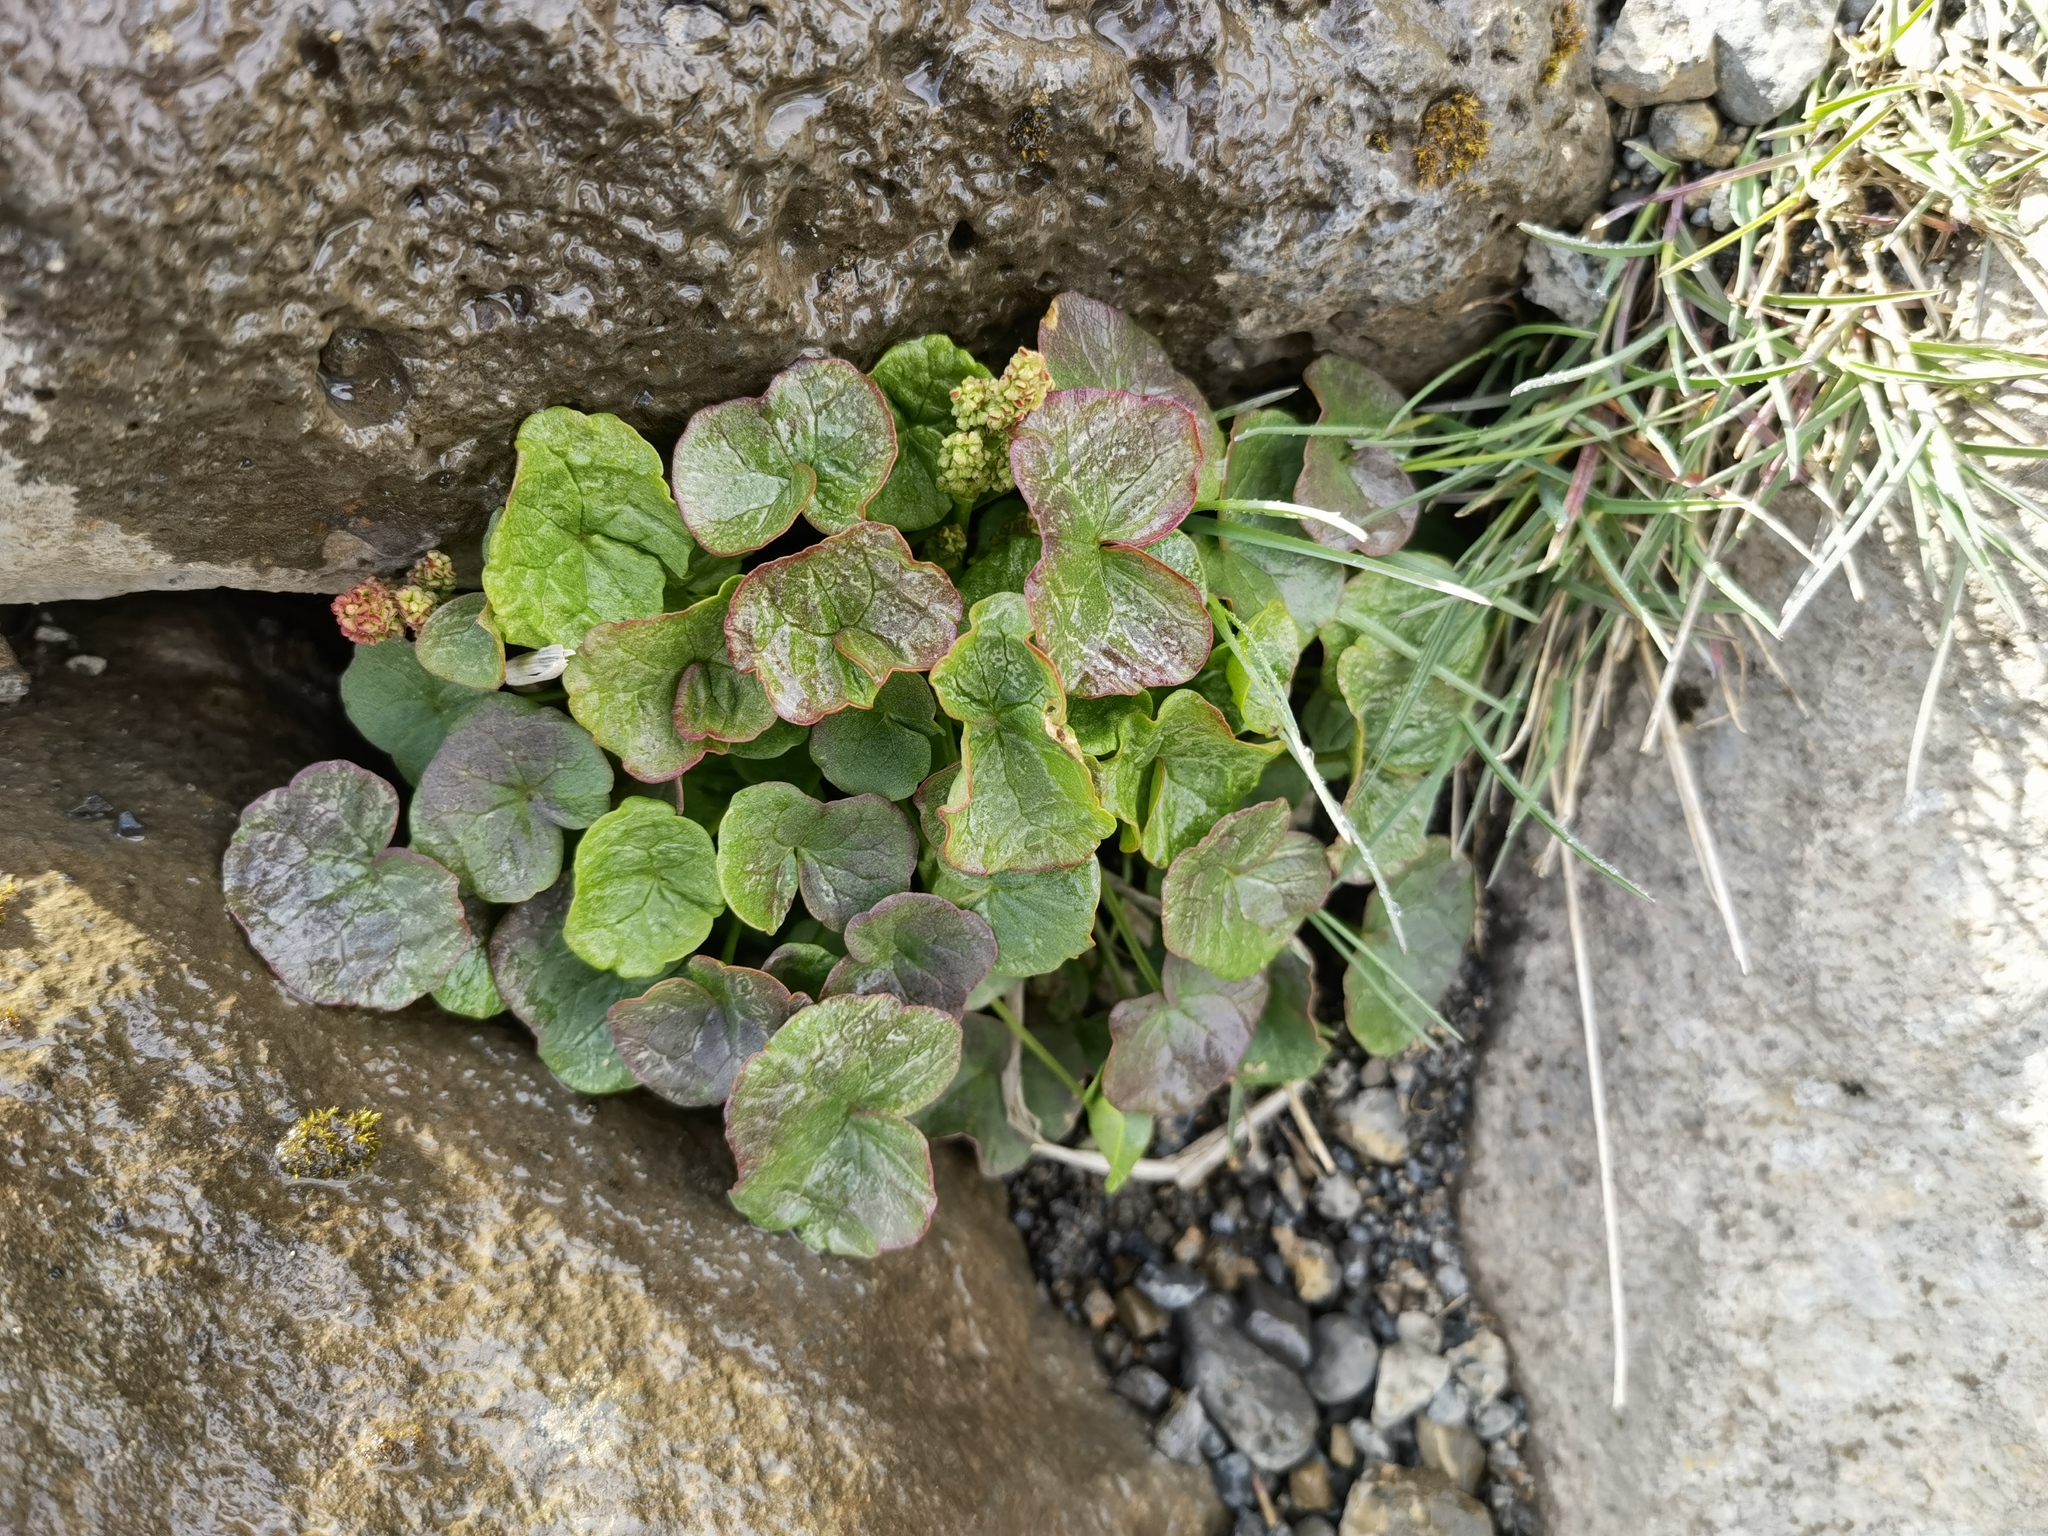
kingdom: Plantae
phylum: Tracheophyta
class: Magnoliopsida
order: Caryophyllales
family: Polygonaceae
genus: Oxyria
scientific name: Oxyria digyna
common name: Alpine mountain-sorrel
